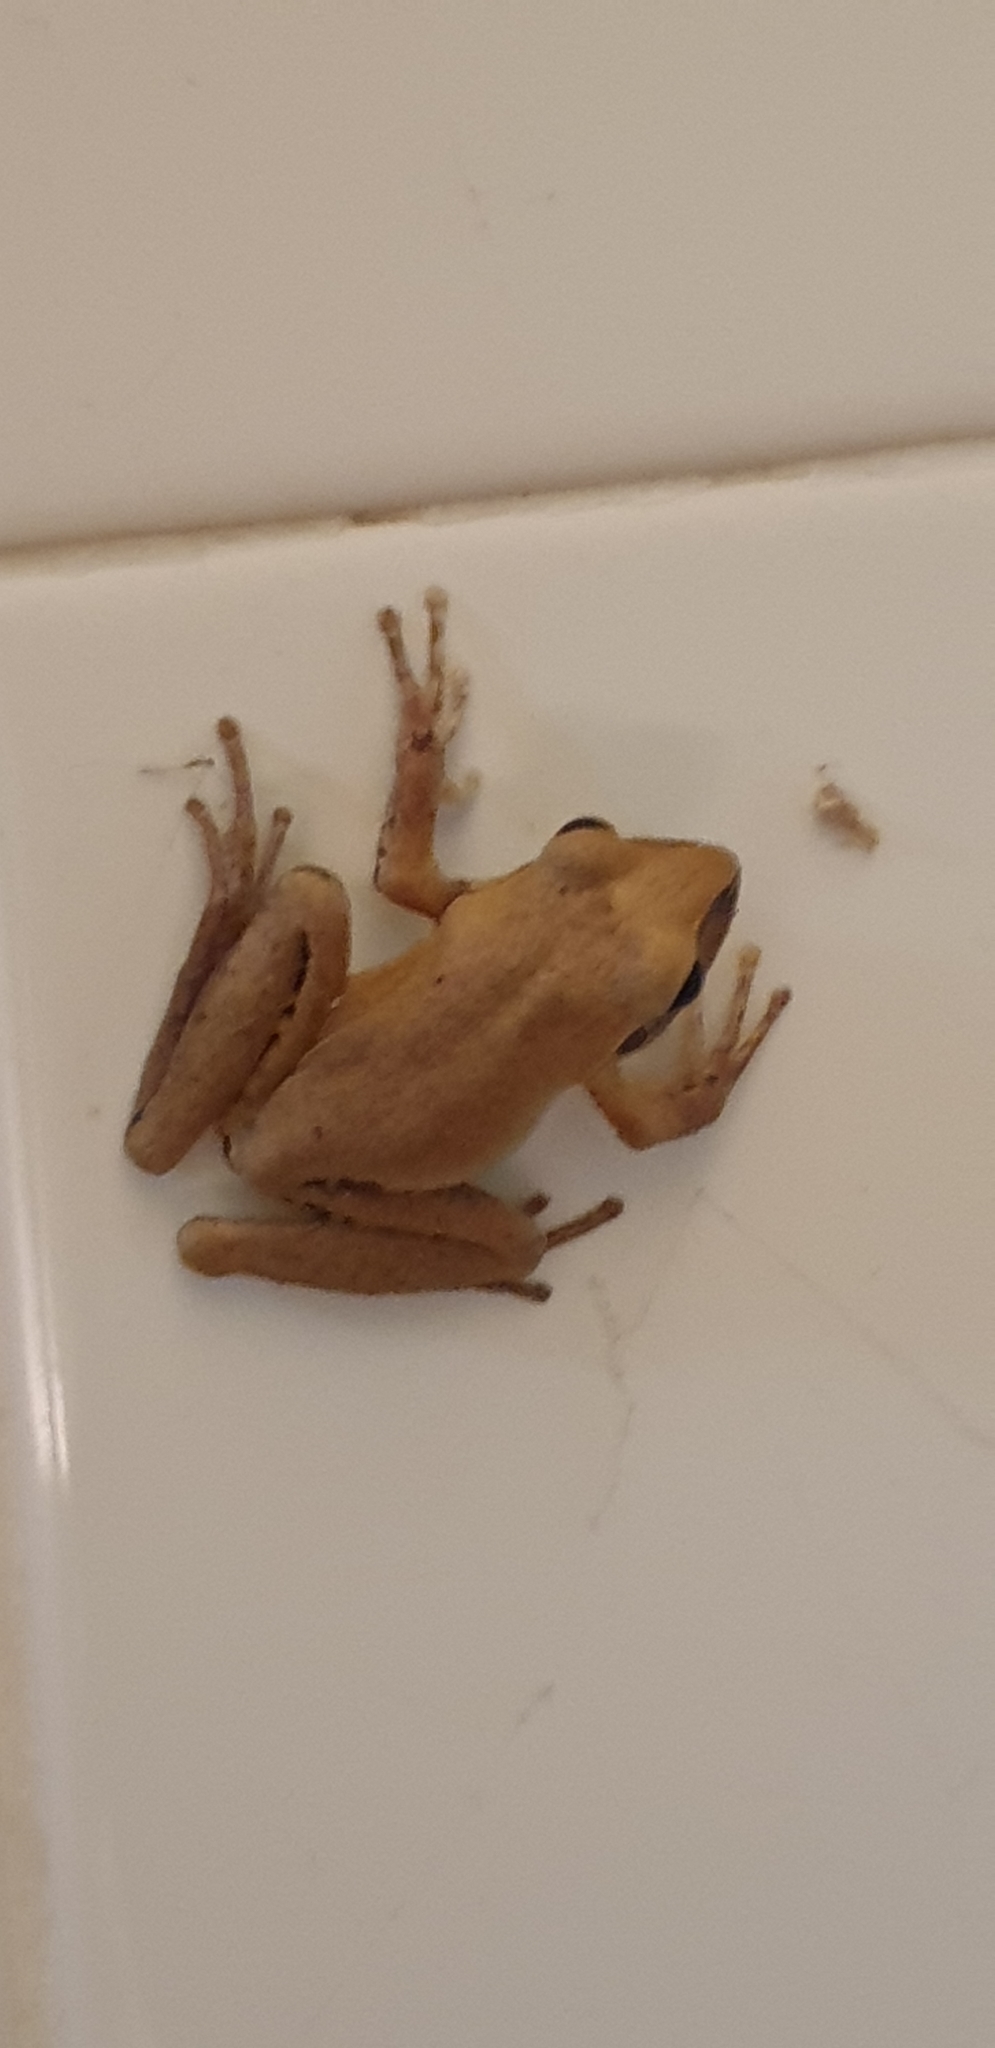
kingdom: Animalia
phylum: Chordata
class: Amphibia
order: Anura
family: Pelodryadidae
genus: Ranoidea
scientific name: Ranoidea wilcoxii
